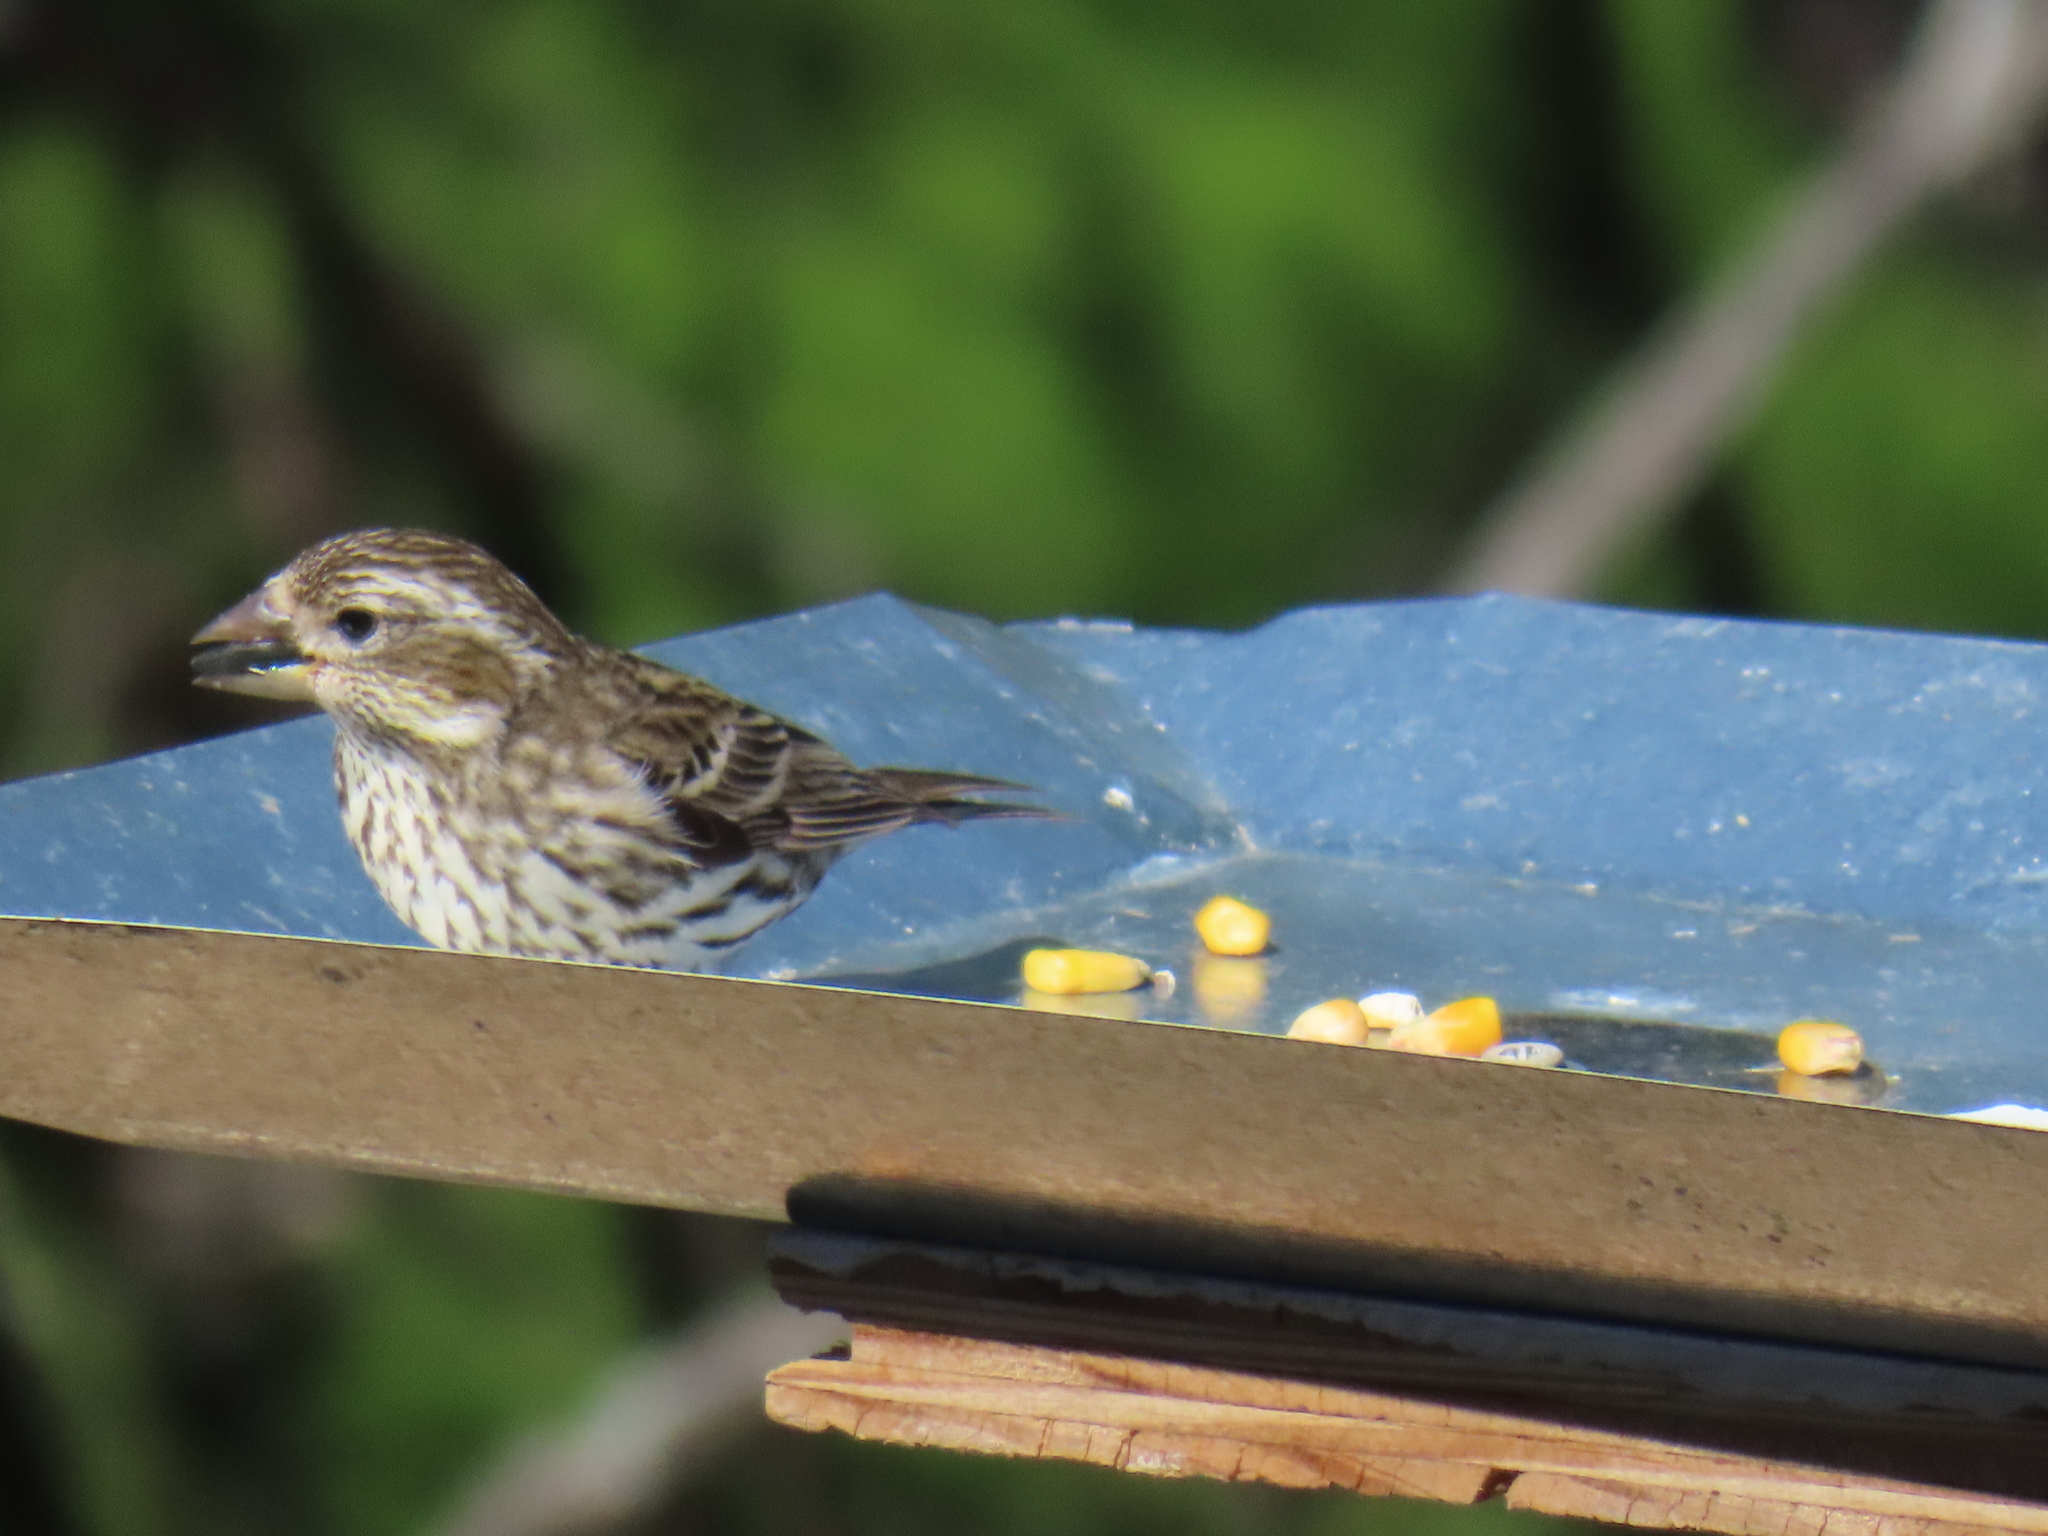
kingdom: Animalia
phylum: Chordata
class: Aves
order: Passeriformes
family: Fringillidae
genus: Haemorhous
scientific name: Haemorhous cassinii
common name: Cassin's finch
